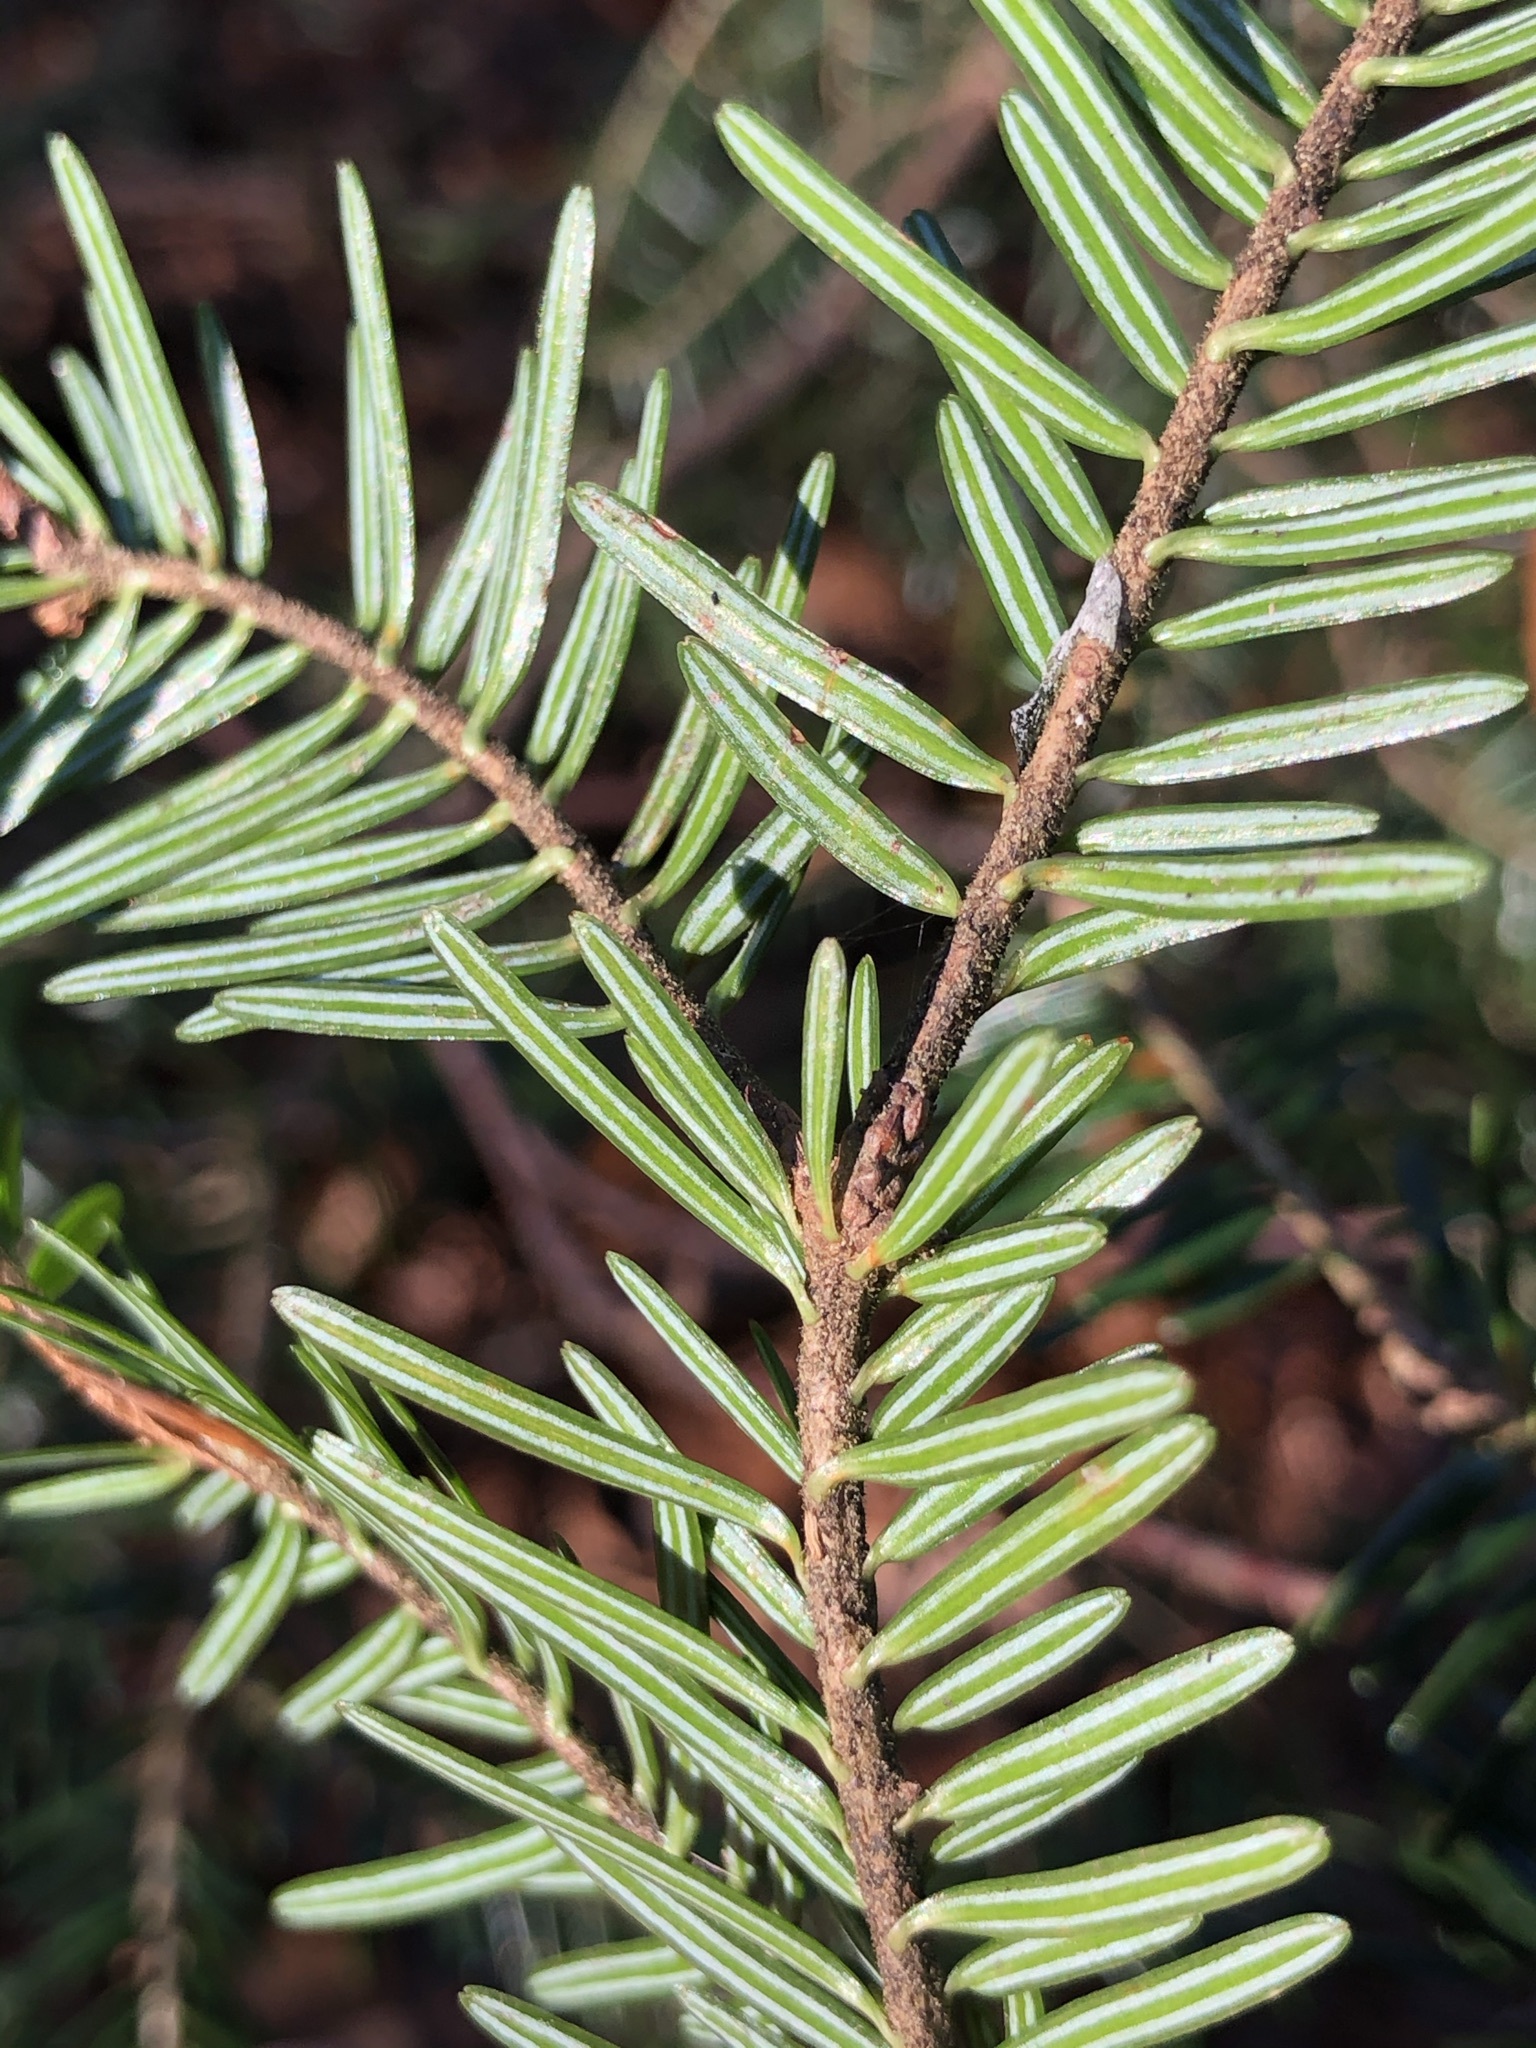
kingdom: Plantae
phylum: Tracheophyta
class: Pinopsida
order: Pinales
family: Pinaceae
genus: Abies
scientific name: Abies alba
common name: Silver fir
